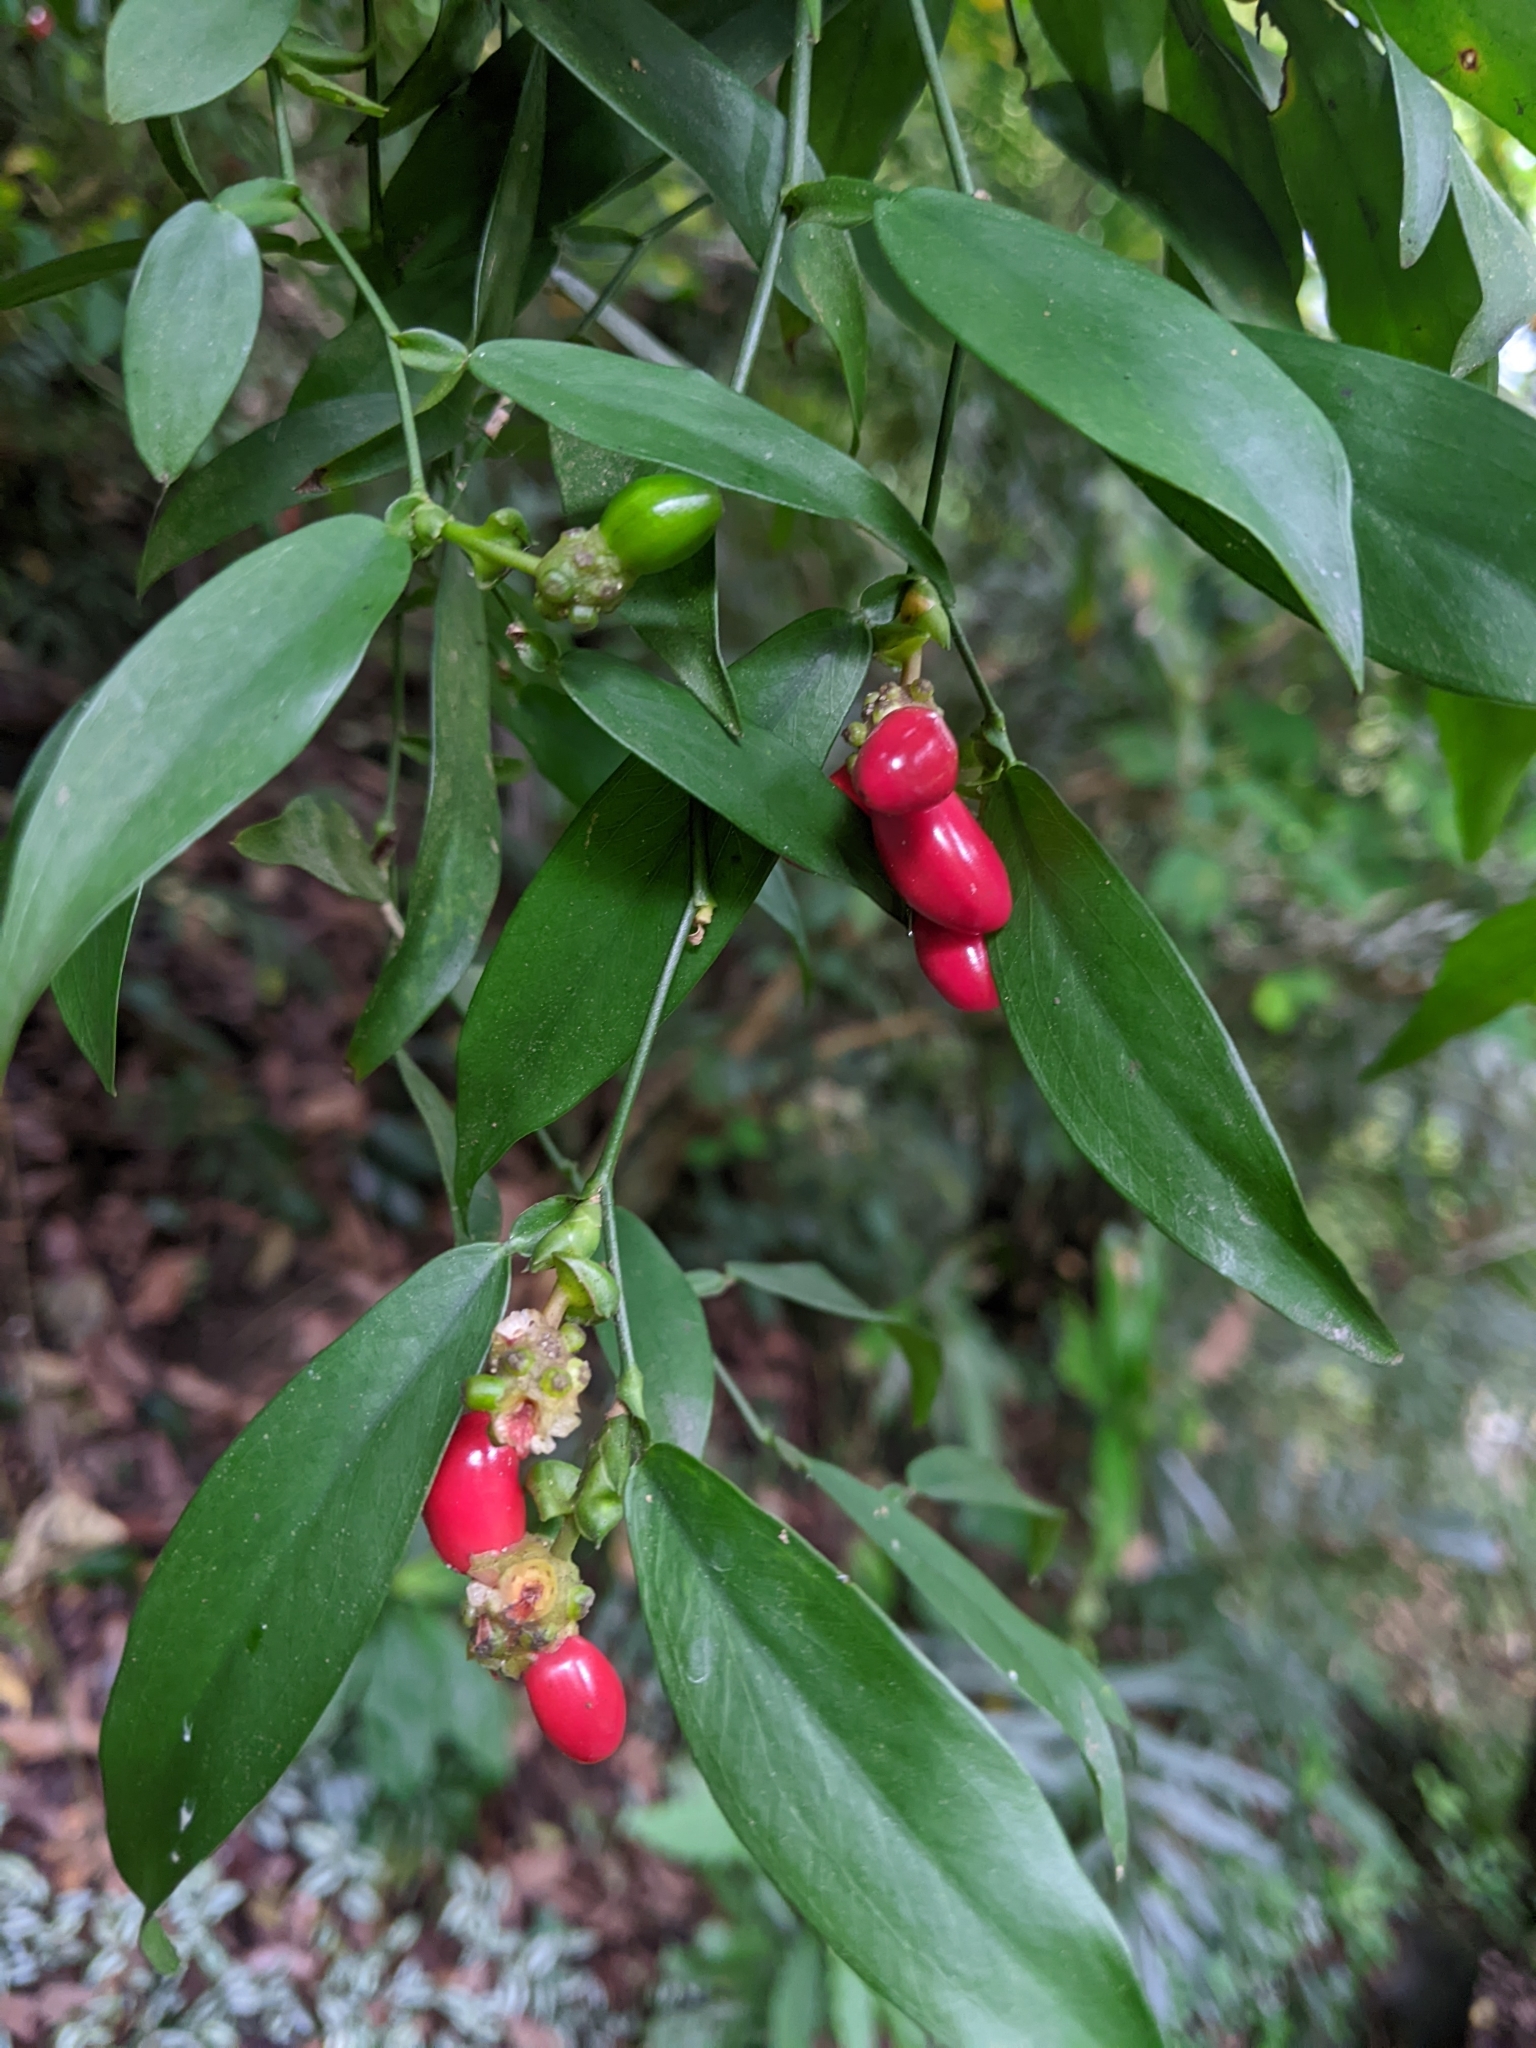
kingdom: Plantae
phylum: Tracheophyta
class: Liliopsida
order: Alismatales
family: Araceae
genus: Pothos
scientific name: Pothos chinensis
